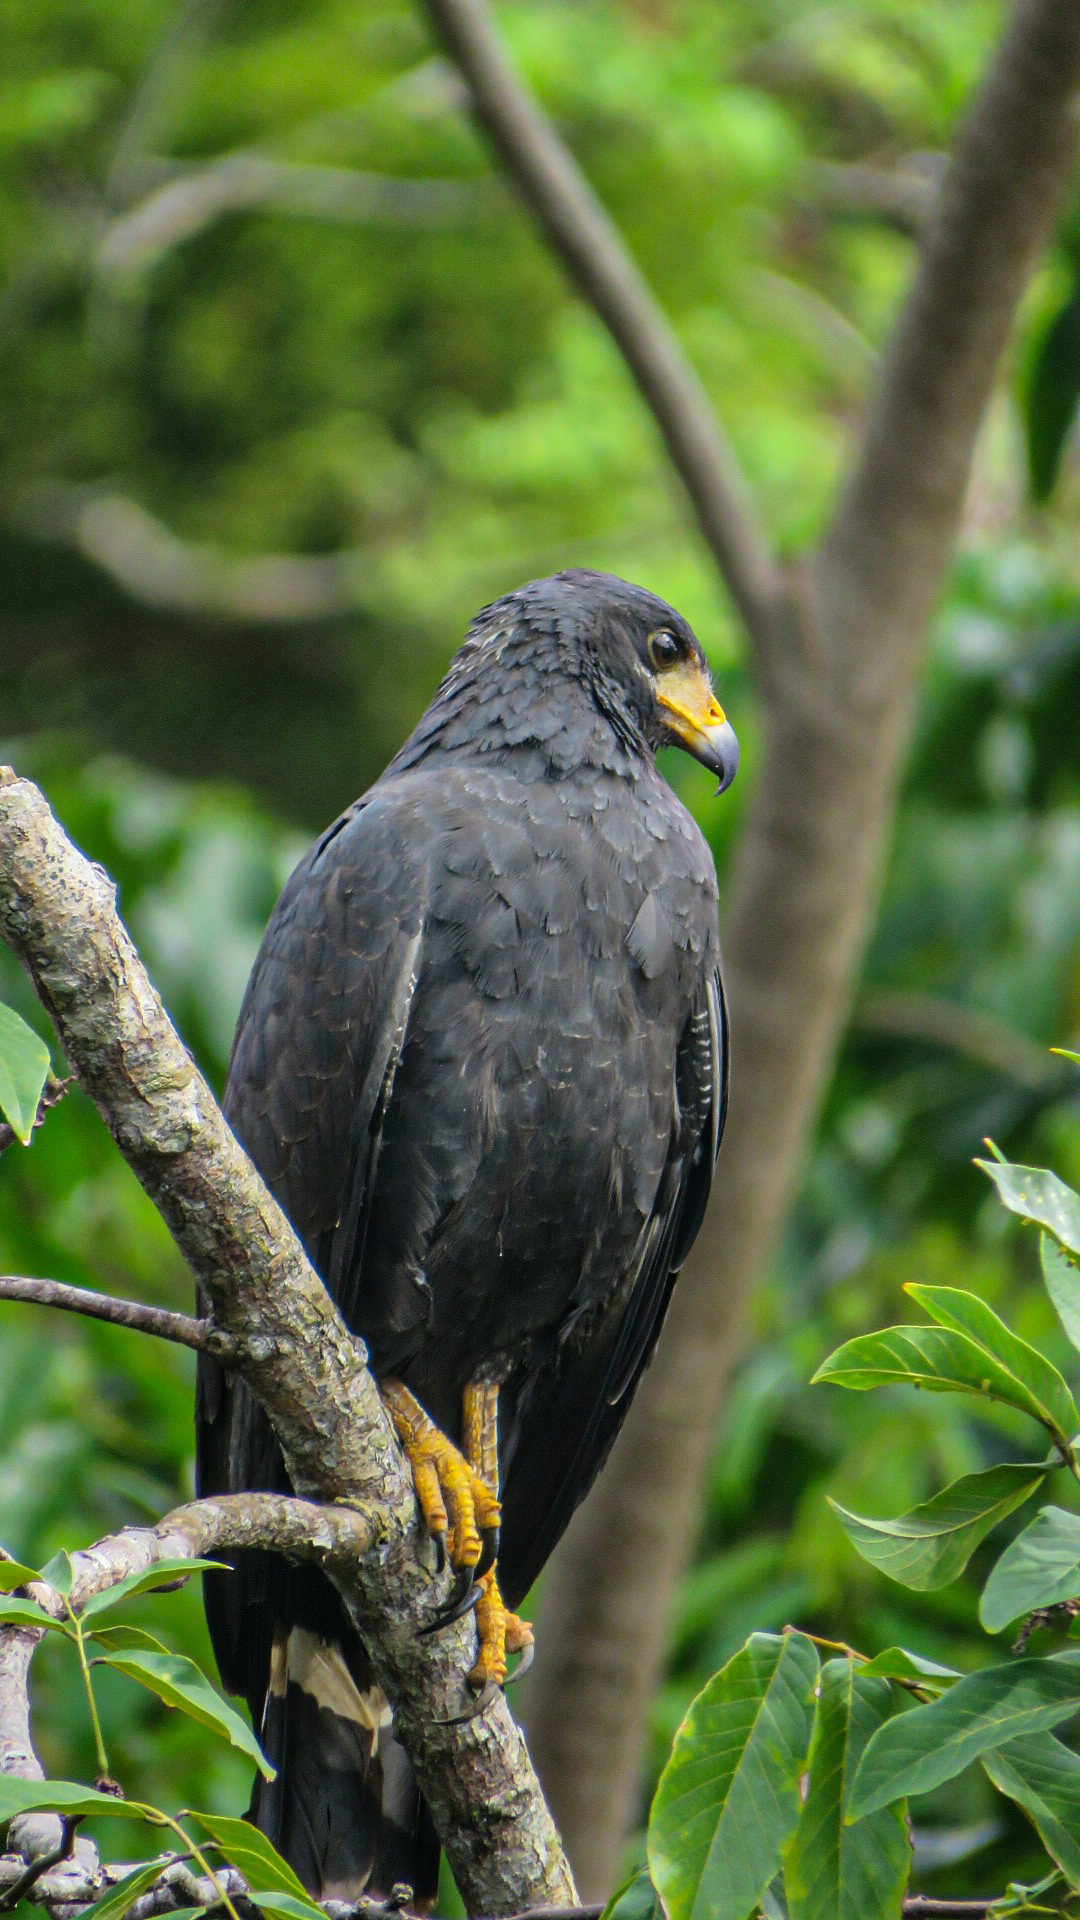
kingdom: Animalia
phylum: Chordata
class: Aves
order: Accipitriformes
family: Accipitridae
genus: Buteogallus
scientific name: Buteogallus anthracinus
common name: Common black hawk
